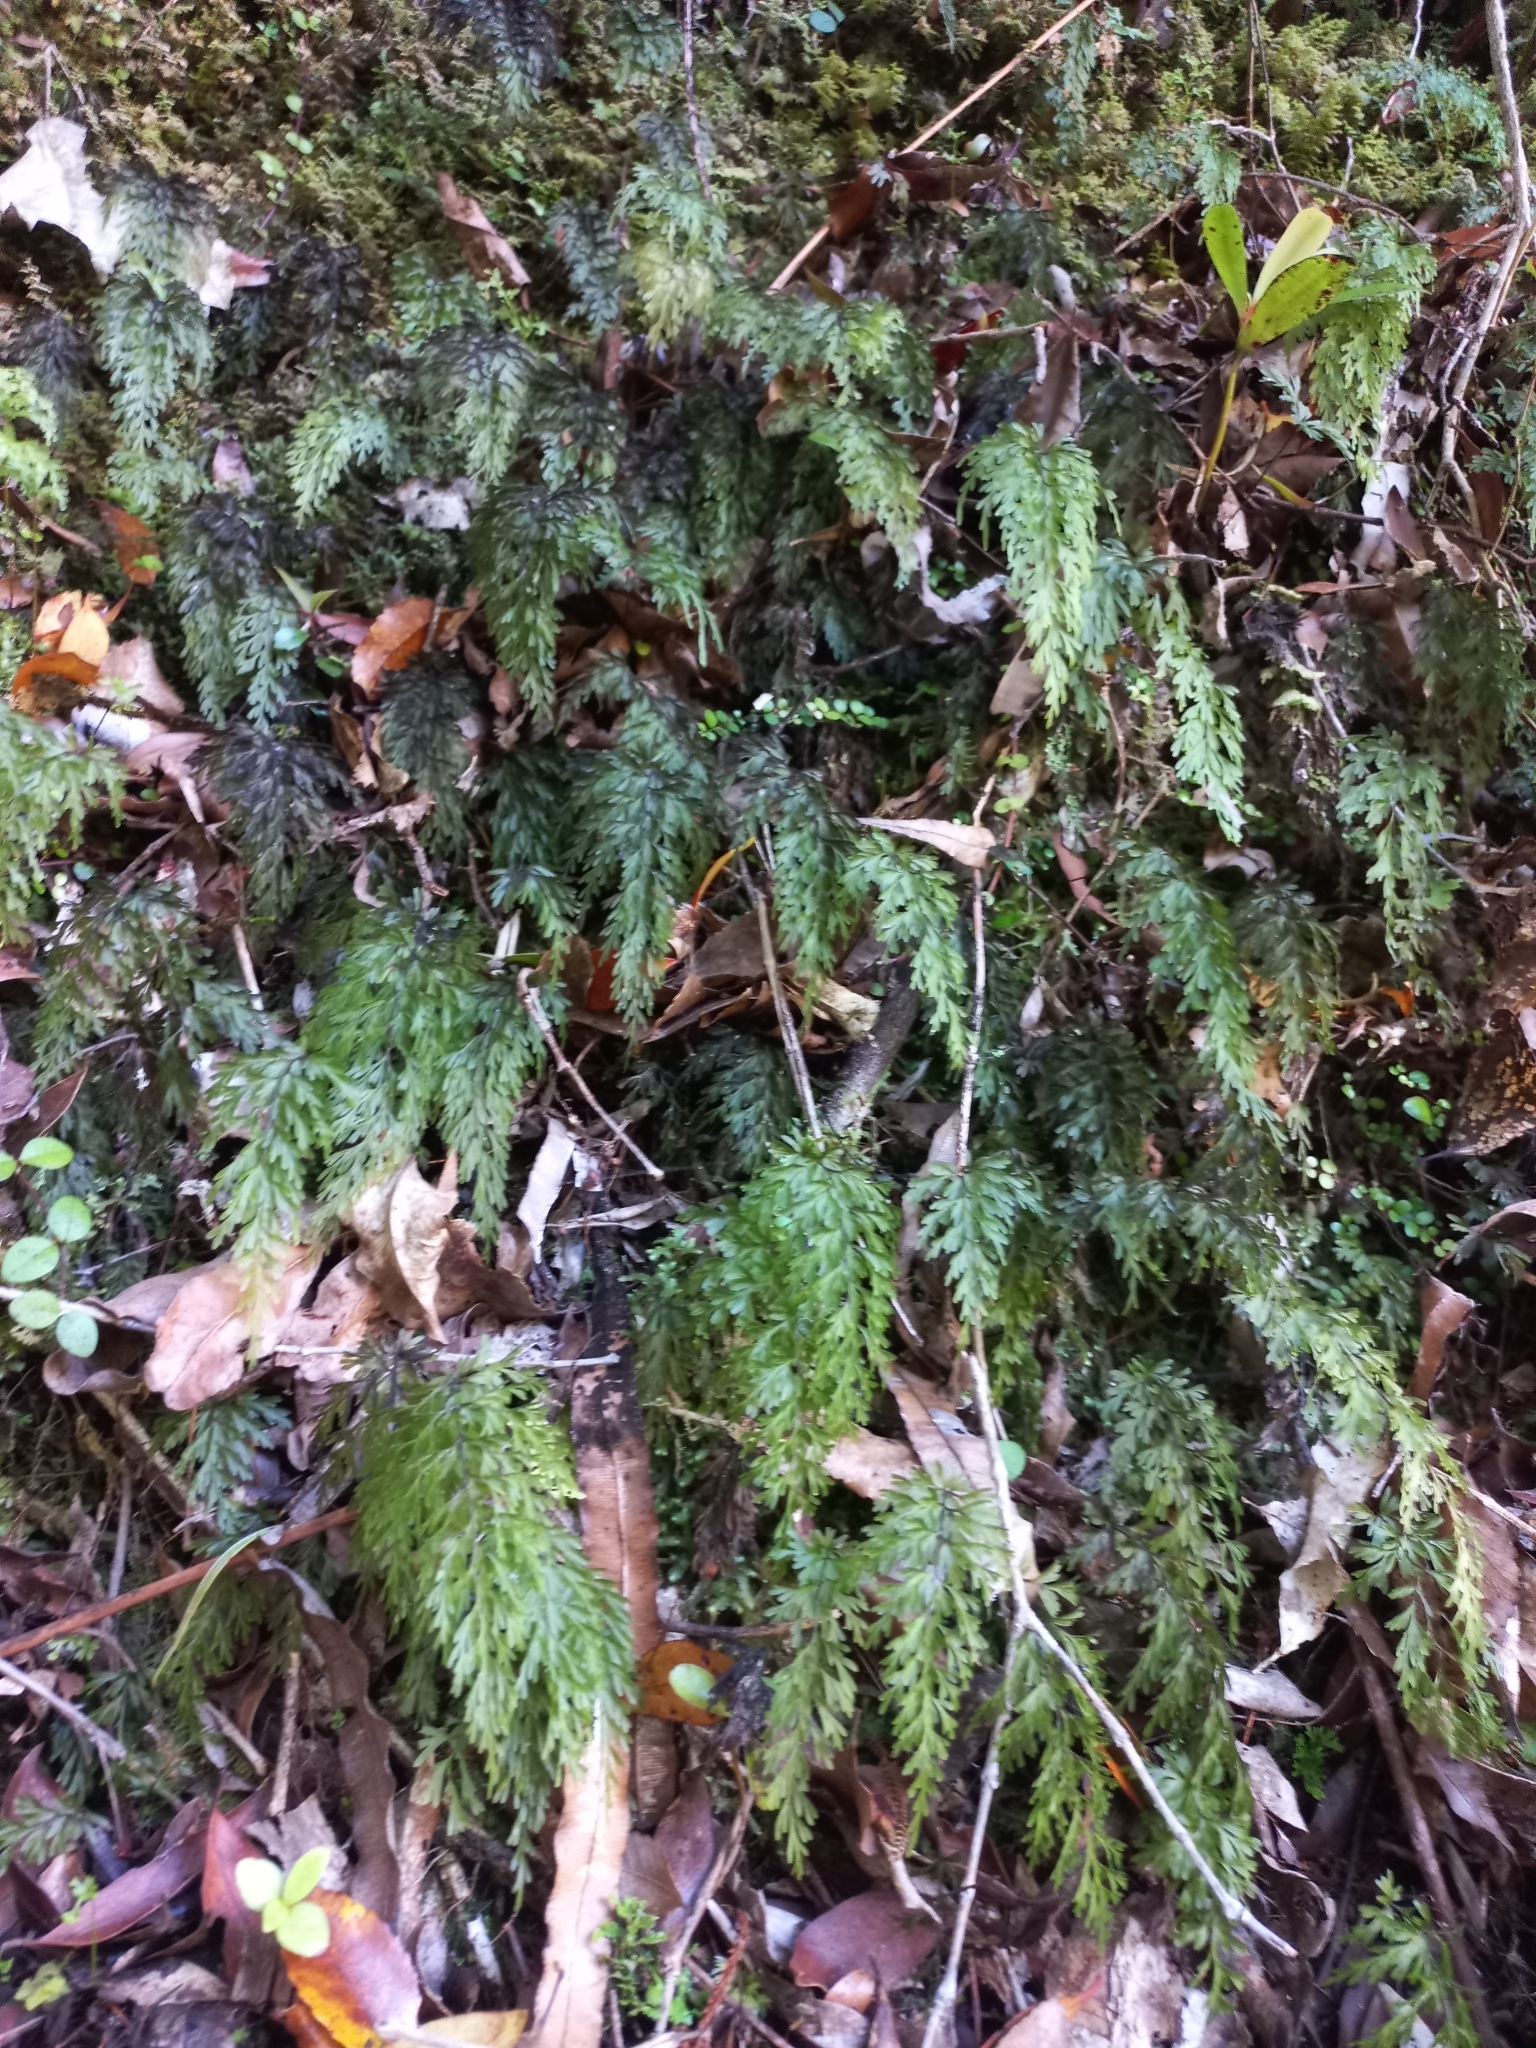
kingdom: Plantae
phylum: Tracheophyta
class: Polypodiopsida
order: Hymenophyllales
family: Hymenophyllaceae
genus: Hymenophyllum
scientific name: Hymenophyllum demissum
